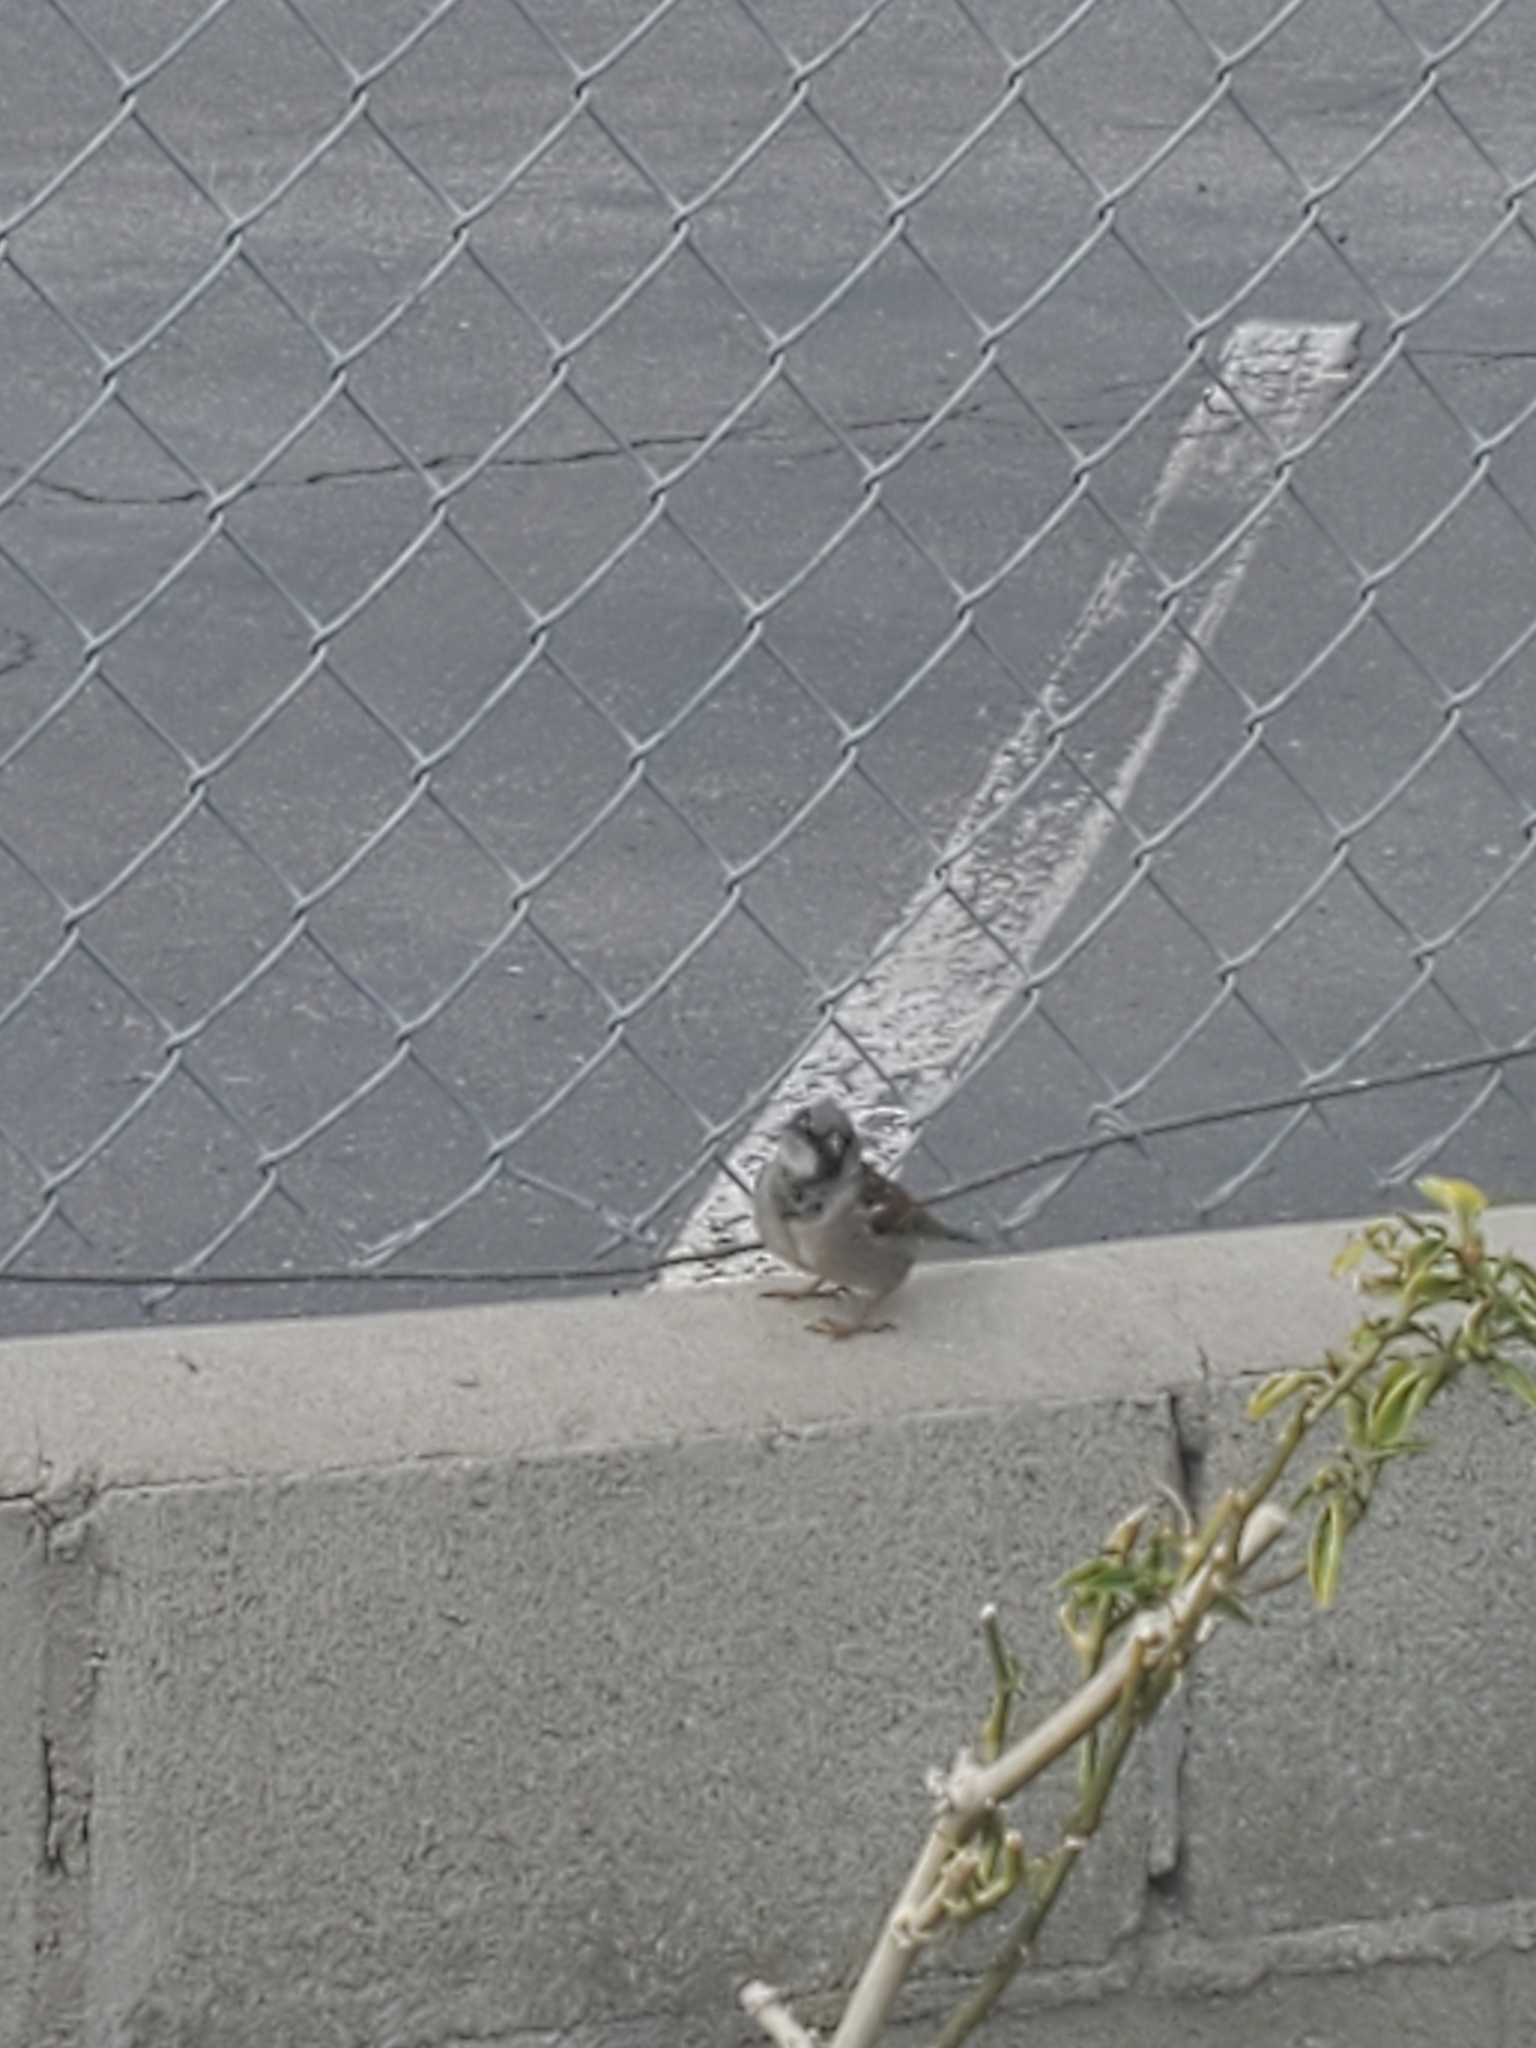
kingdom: Animalia
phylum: Chordata
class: Aves
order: Passeriformes
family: Passeridae
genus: Passer
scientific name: Passer domesticus
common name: House sparrow
